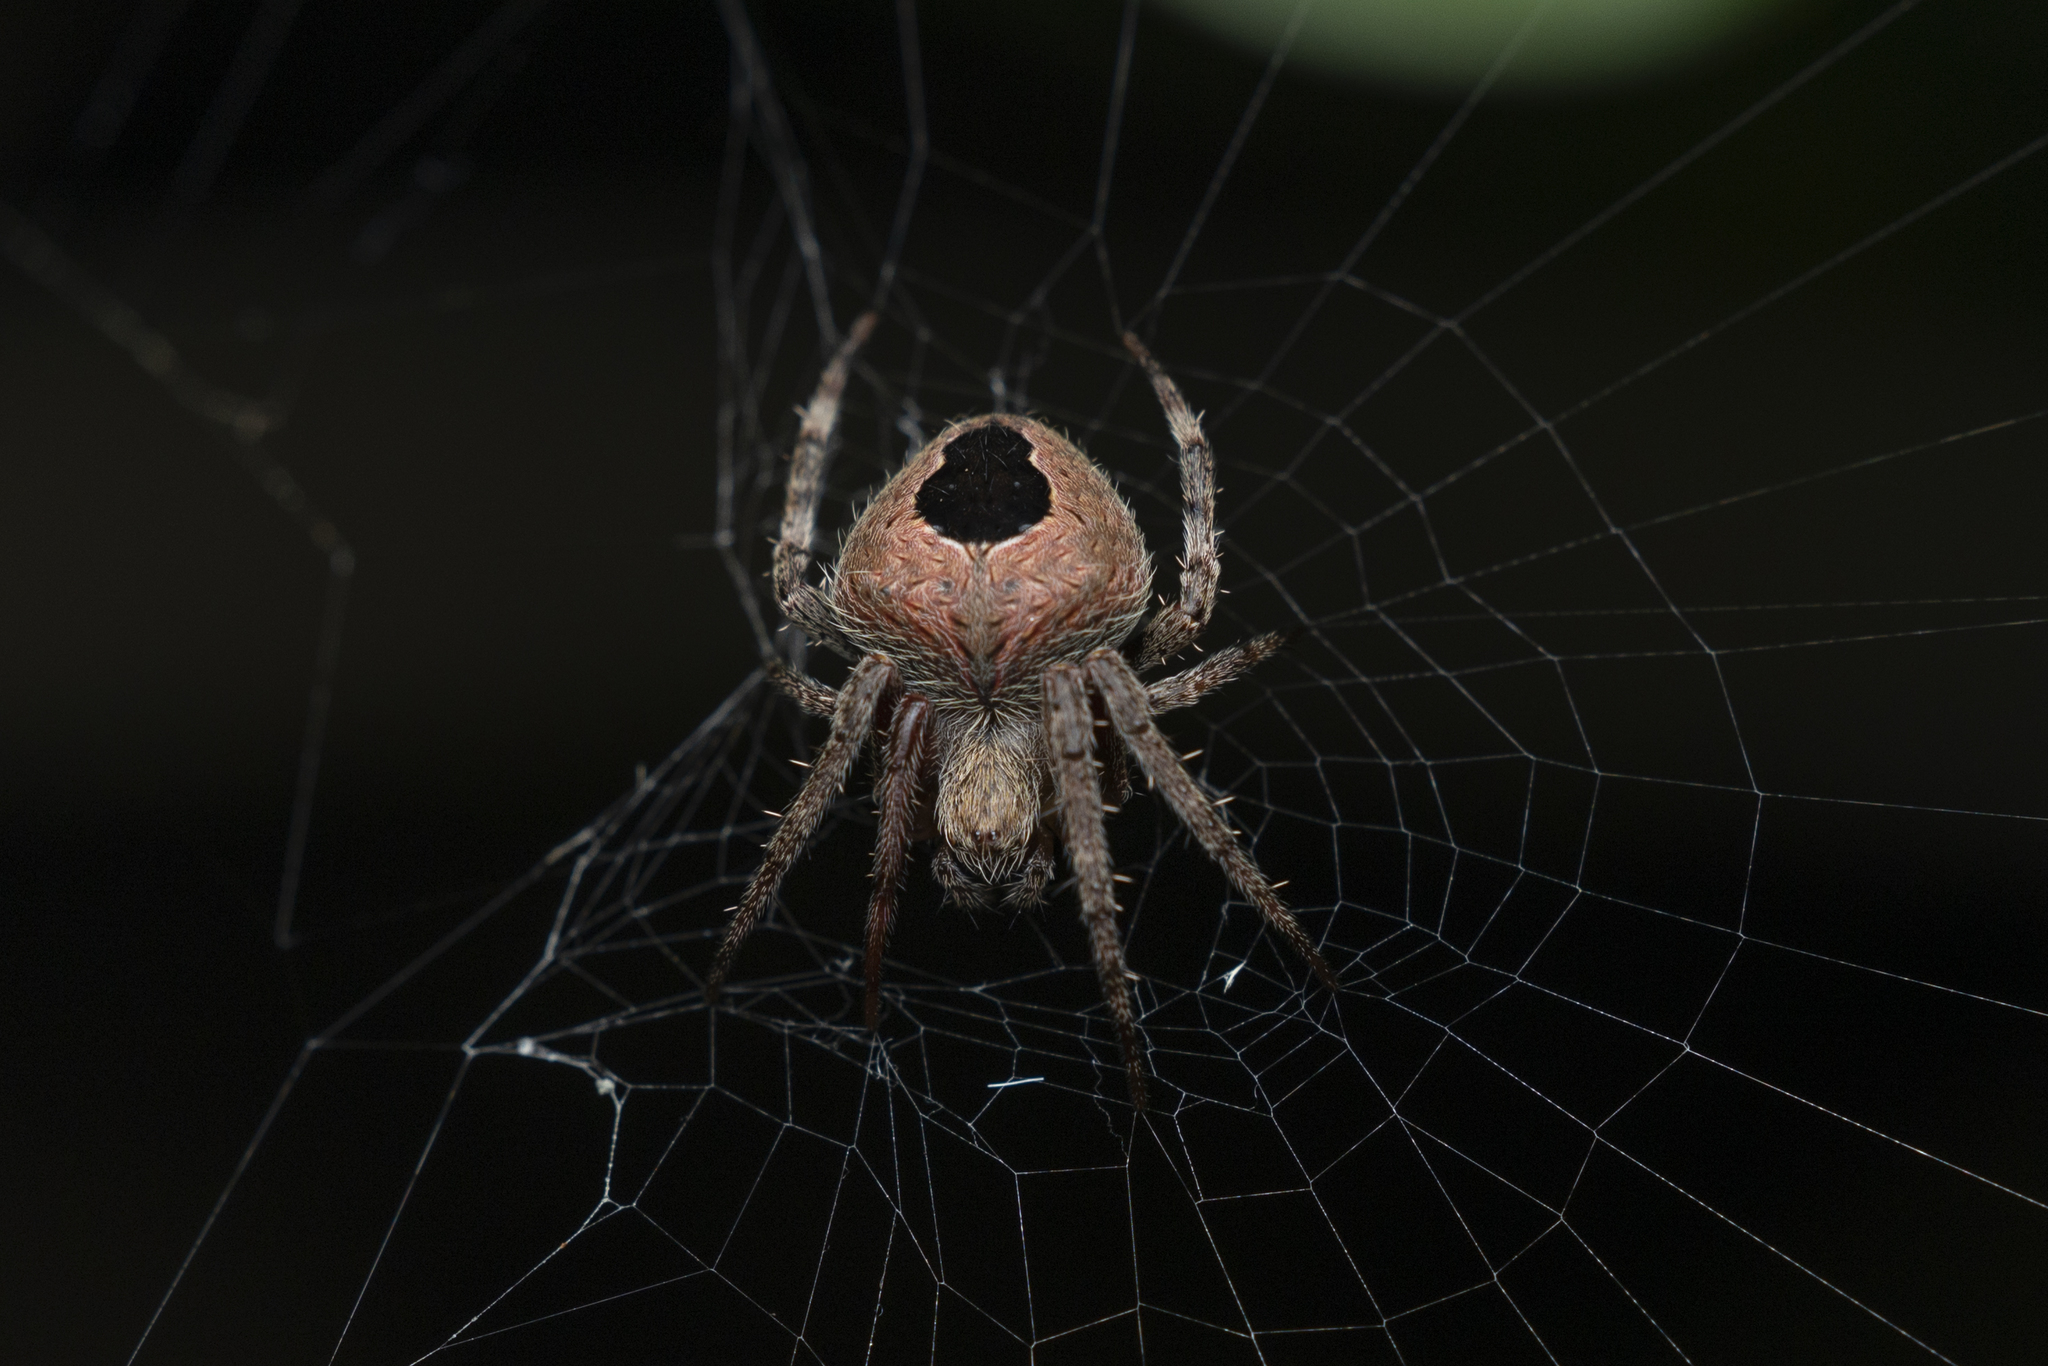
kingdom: Animalia
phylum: Arthropoda
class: Arachnida
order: Araneae
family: Araneidae
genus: Neoscona
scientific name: Neoscona vigilans
